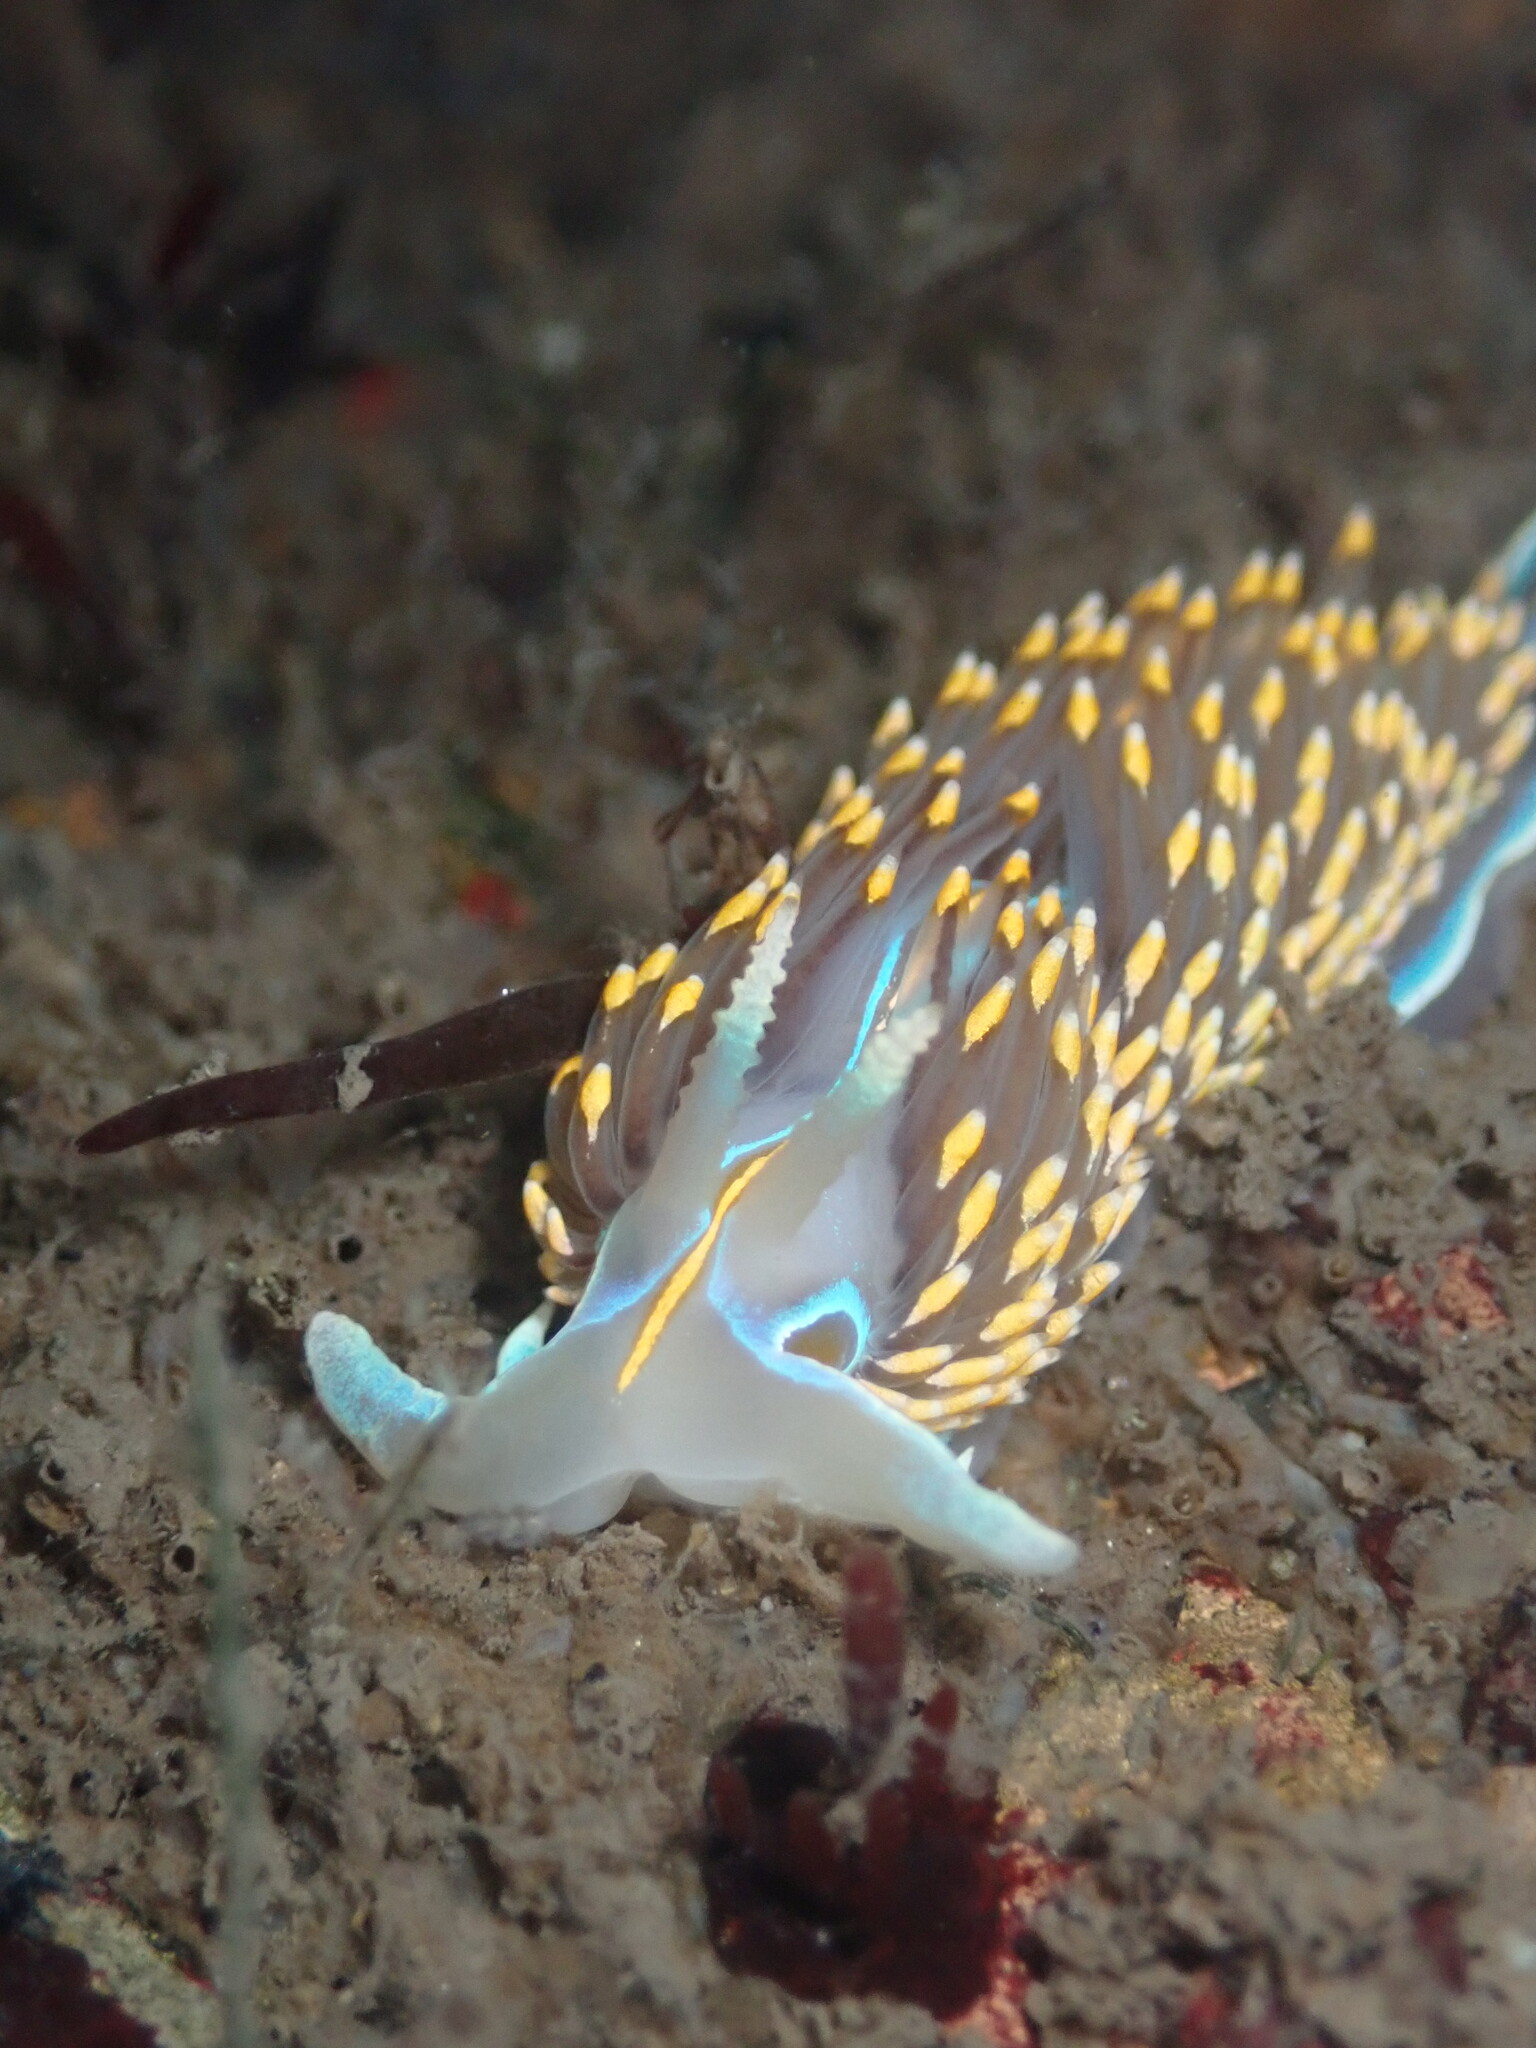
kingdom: Animalia
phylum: Mollusca
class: Gastropoda
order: Nudibranchia
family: Myrrhinidae
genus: Hermissenda
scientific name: Hermissenda opalescens
